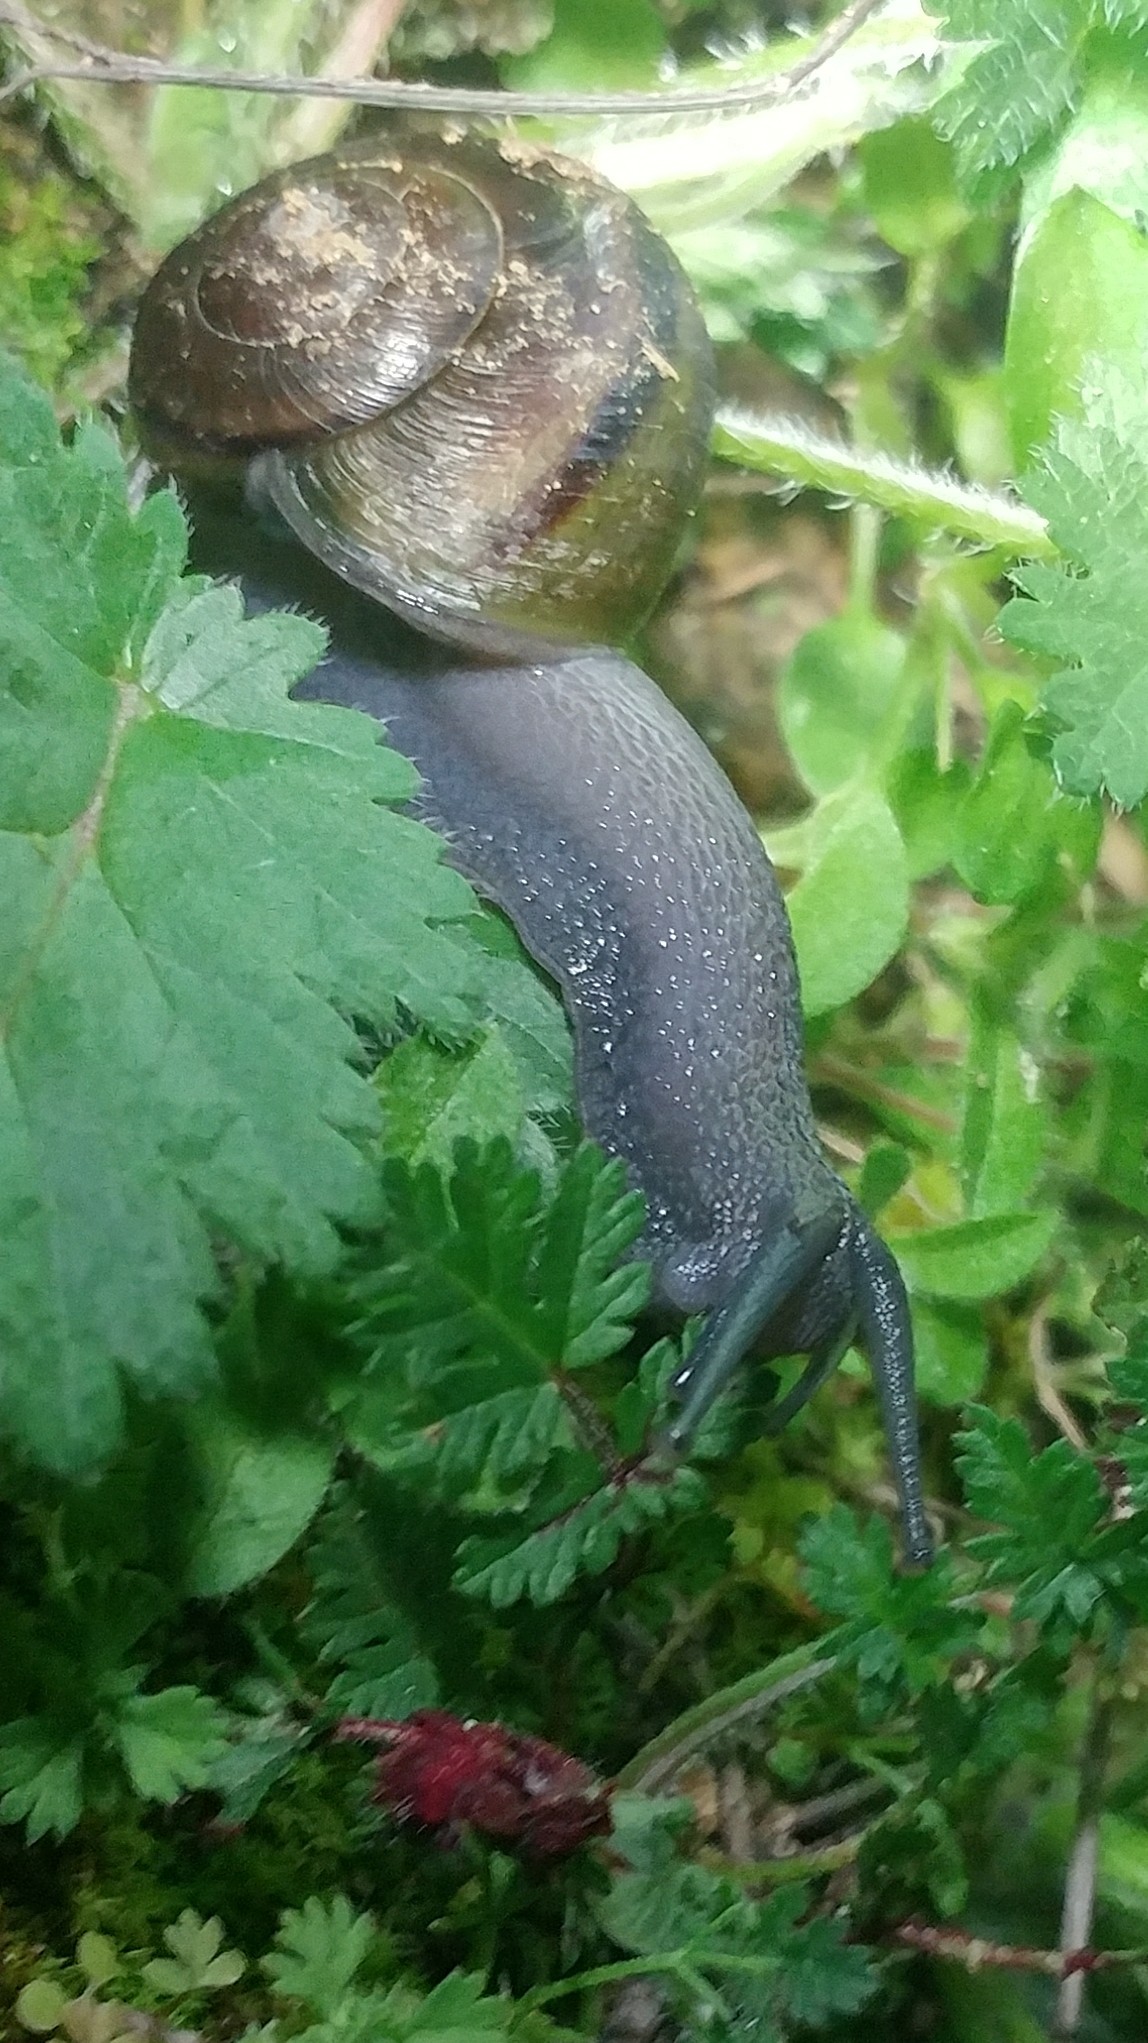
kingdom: Animalia
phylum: Mollusca
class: Gastropoda
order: Stylommatophora
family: Xanthonychidae
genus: Helminthoglypta
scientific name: Helminthoglypta tudiculata
